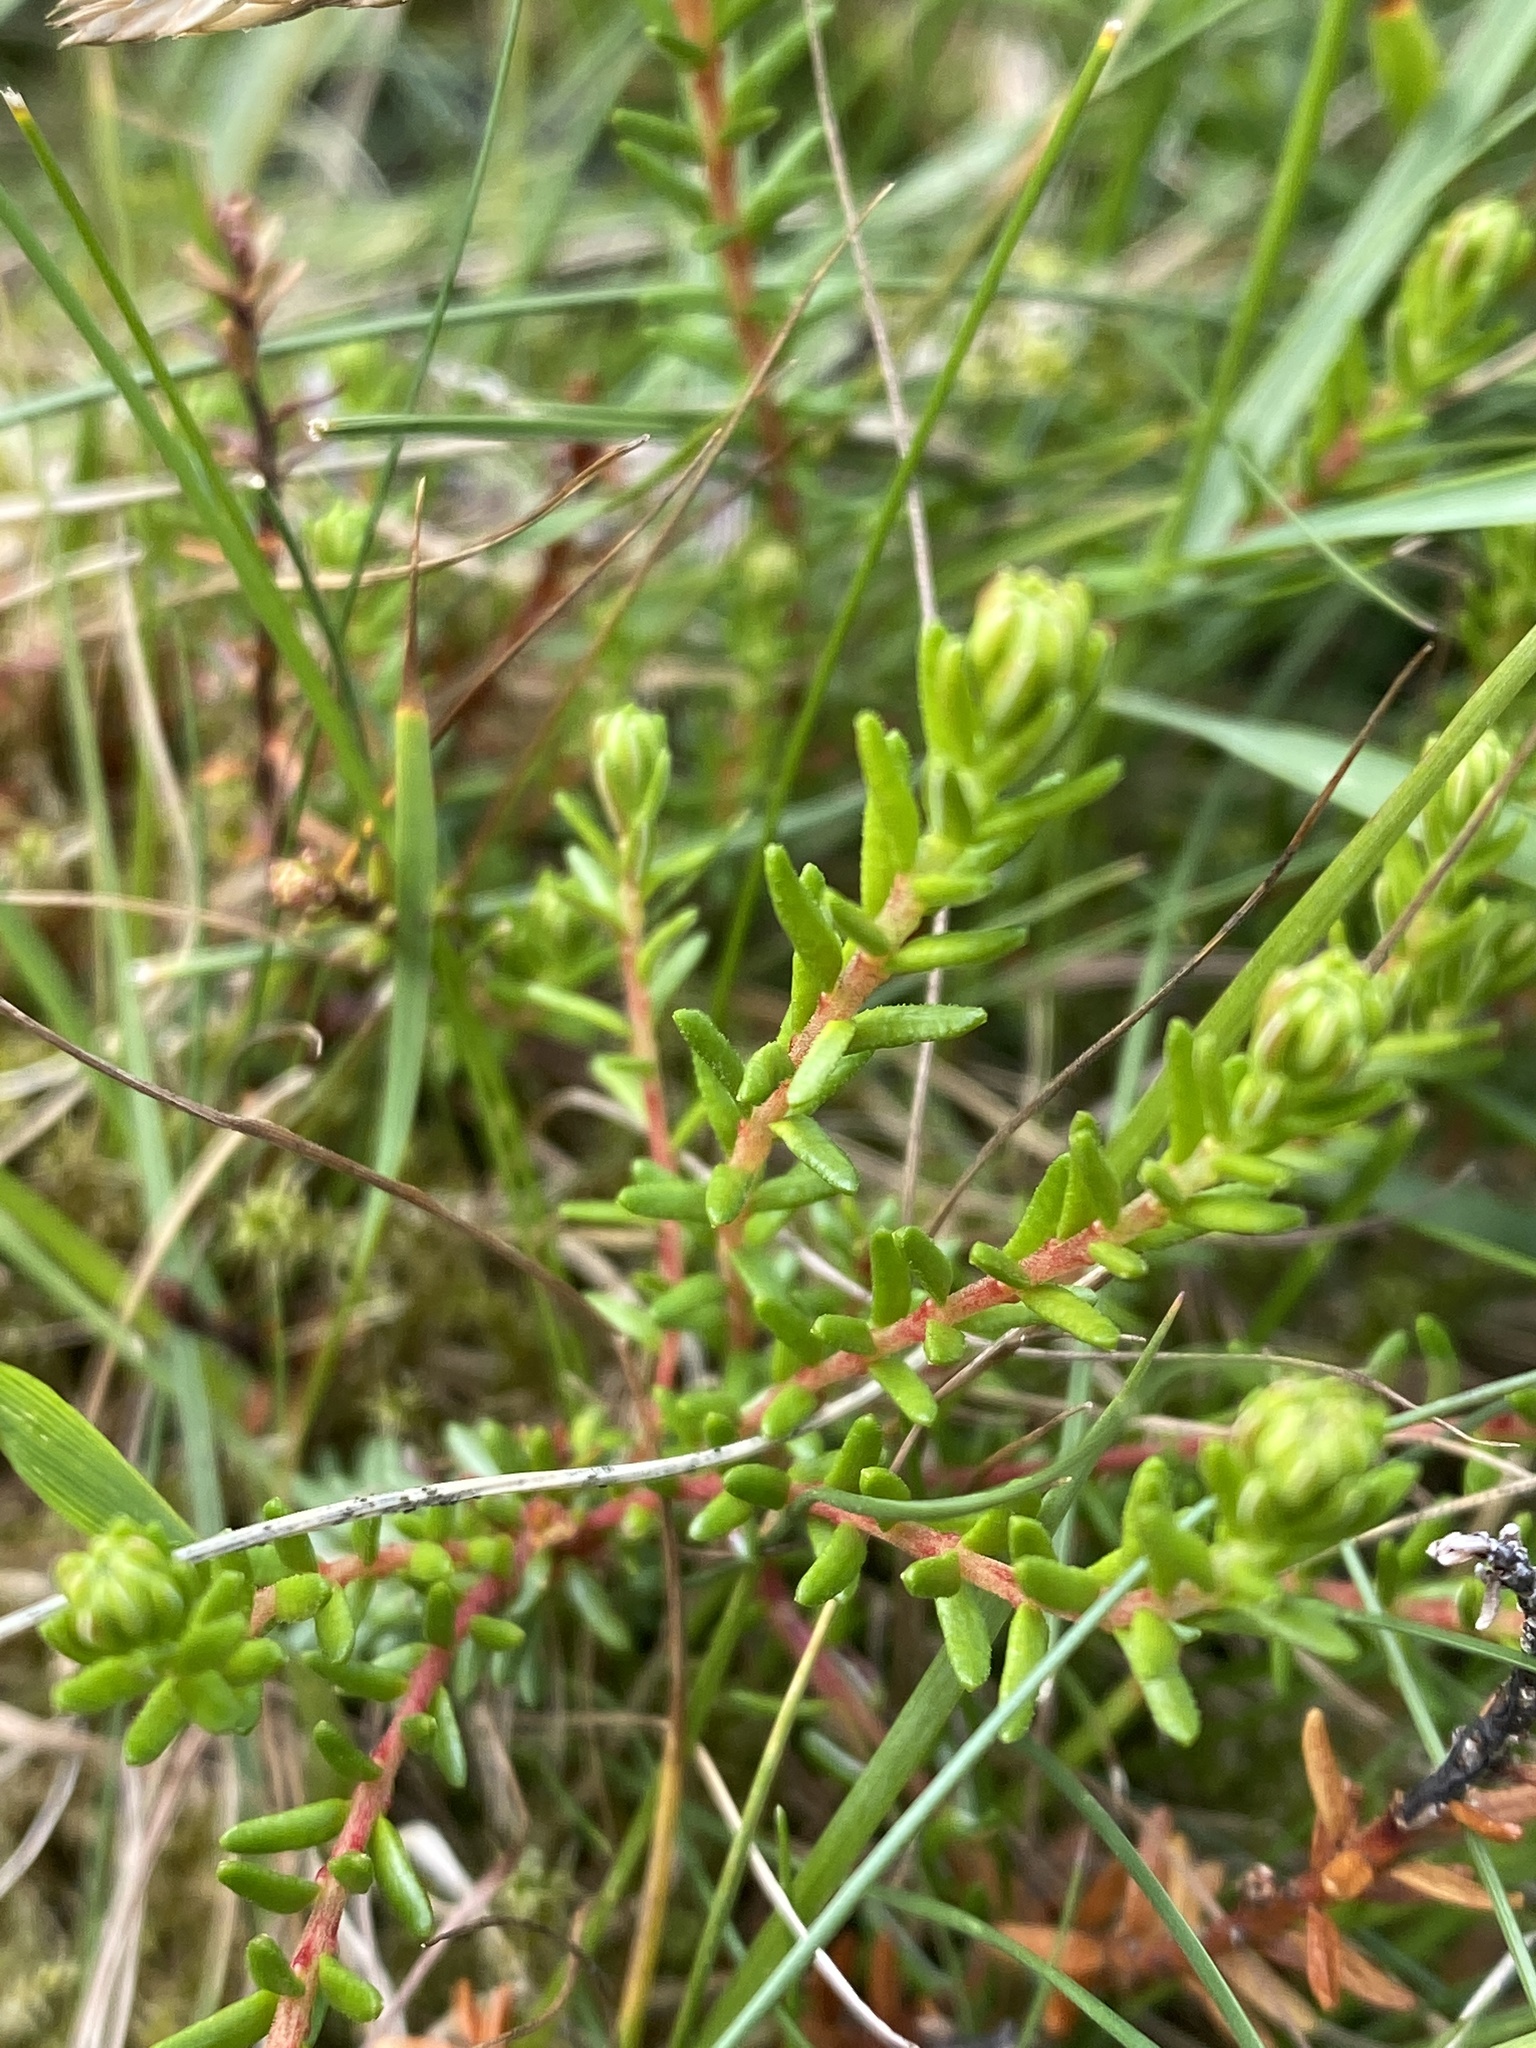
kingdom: Plantae
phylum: Tracheophyta
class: Magnoliopsida
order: Ericales
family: Ericaceae
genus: Empetrum
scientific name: Empetrum nigrum
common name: Black crowberry
